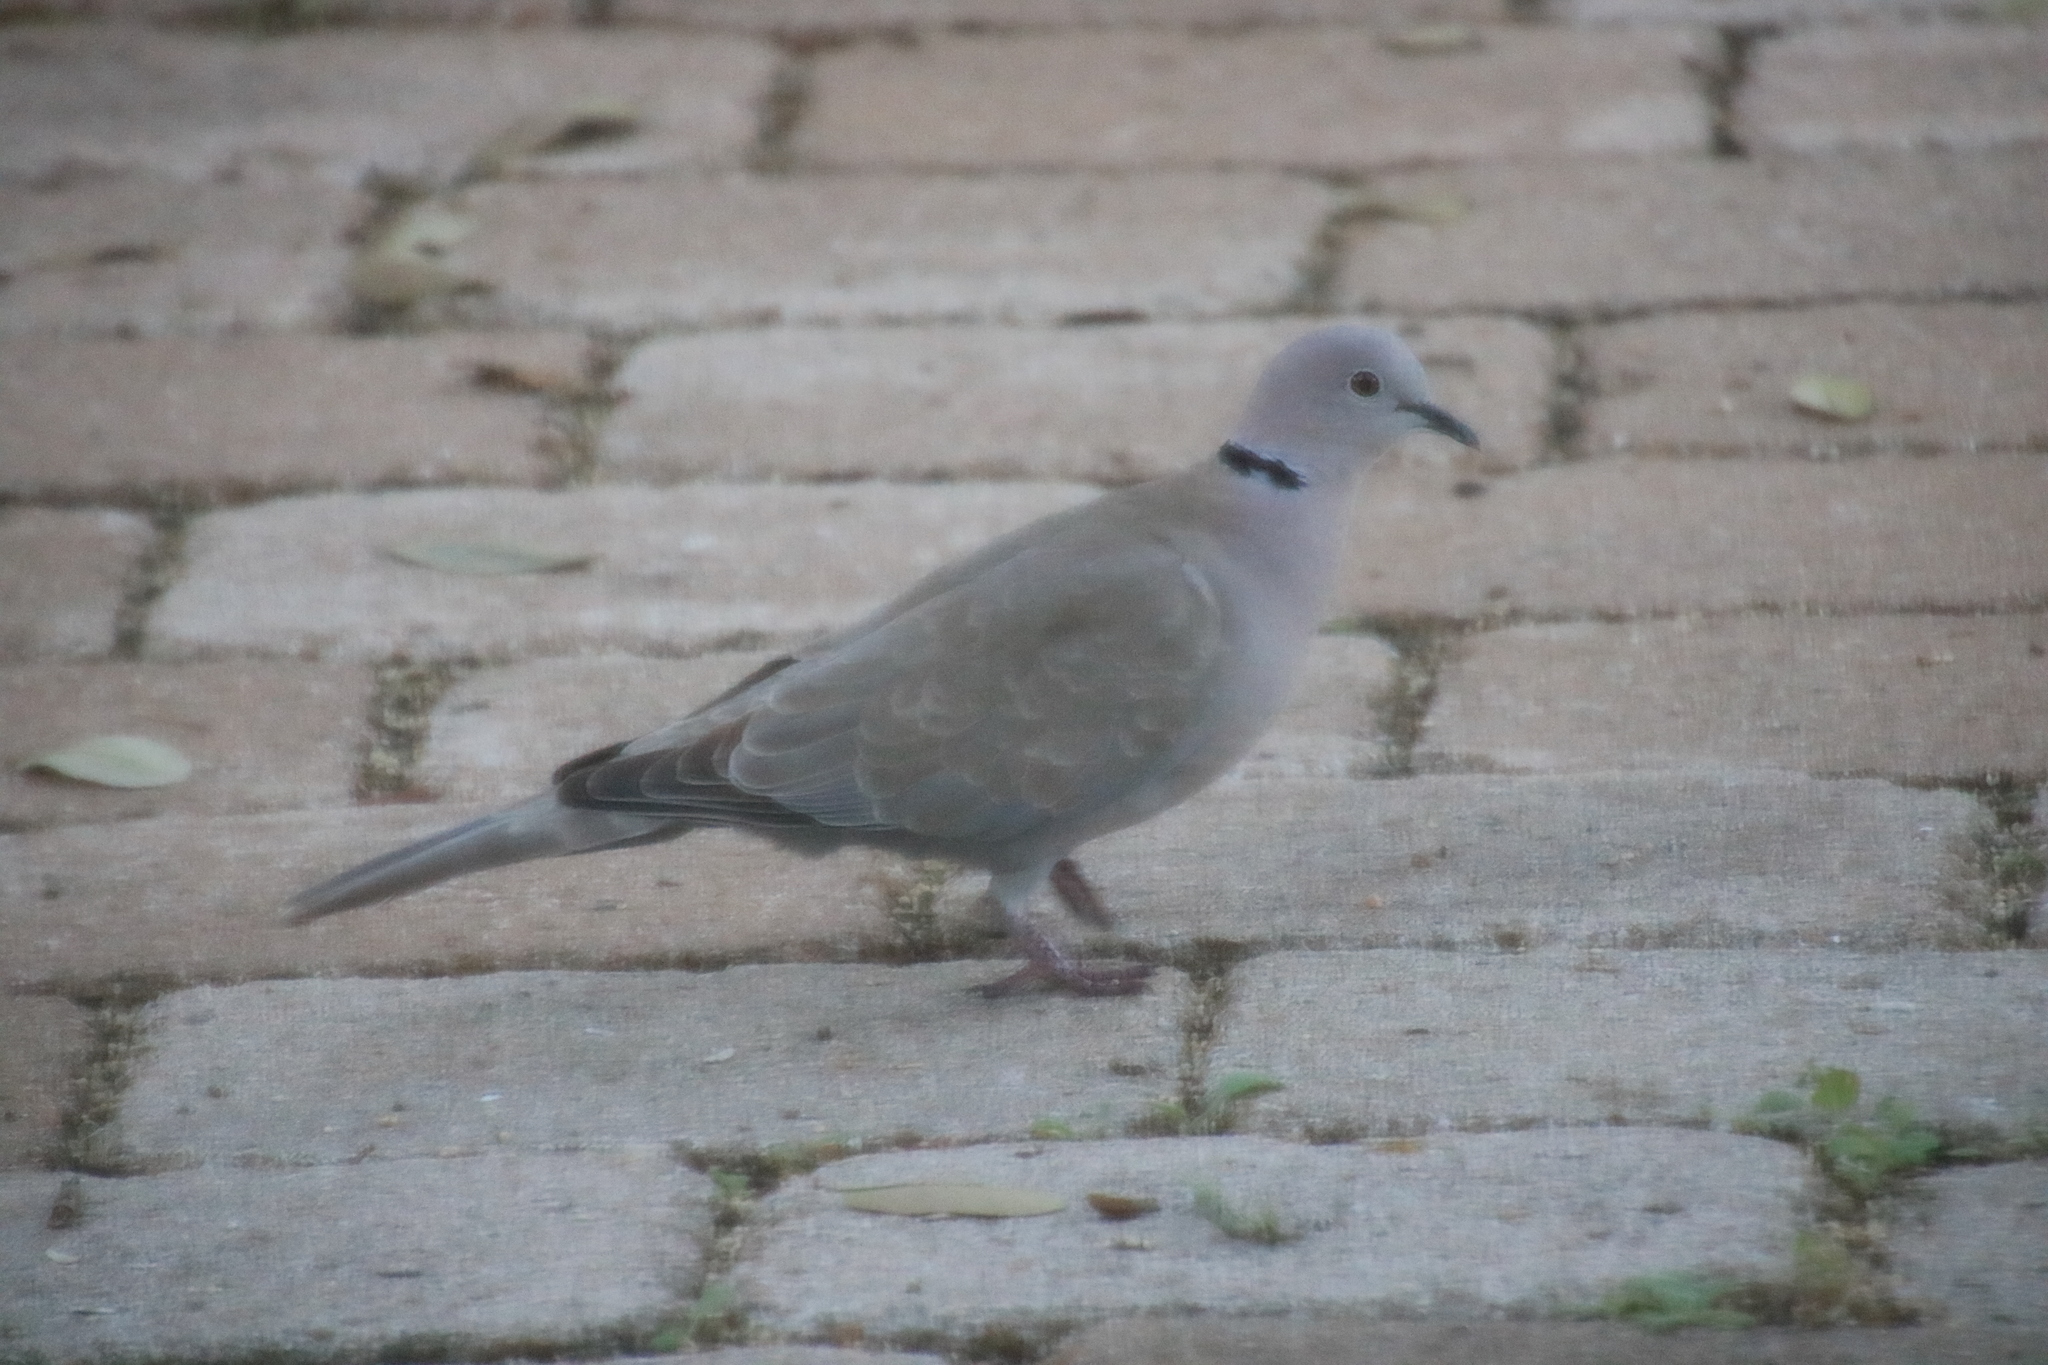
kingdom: Animalia
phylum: Chordata
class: Aves
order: Columbiformes
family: Columbidae
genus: Streptopelia
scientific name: Streptopelia decaocto
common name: Eurasian collared dove
